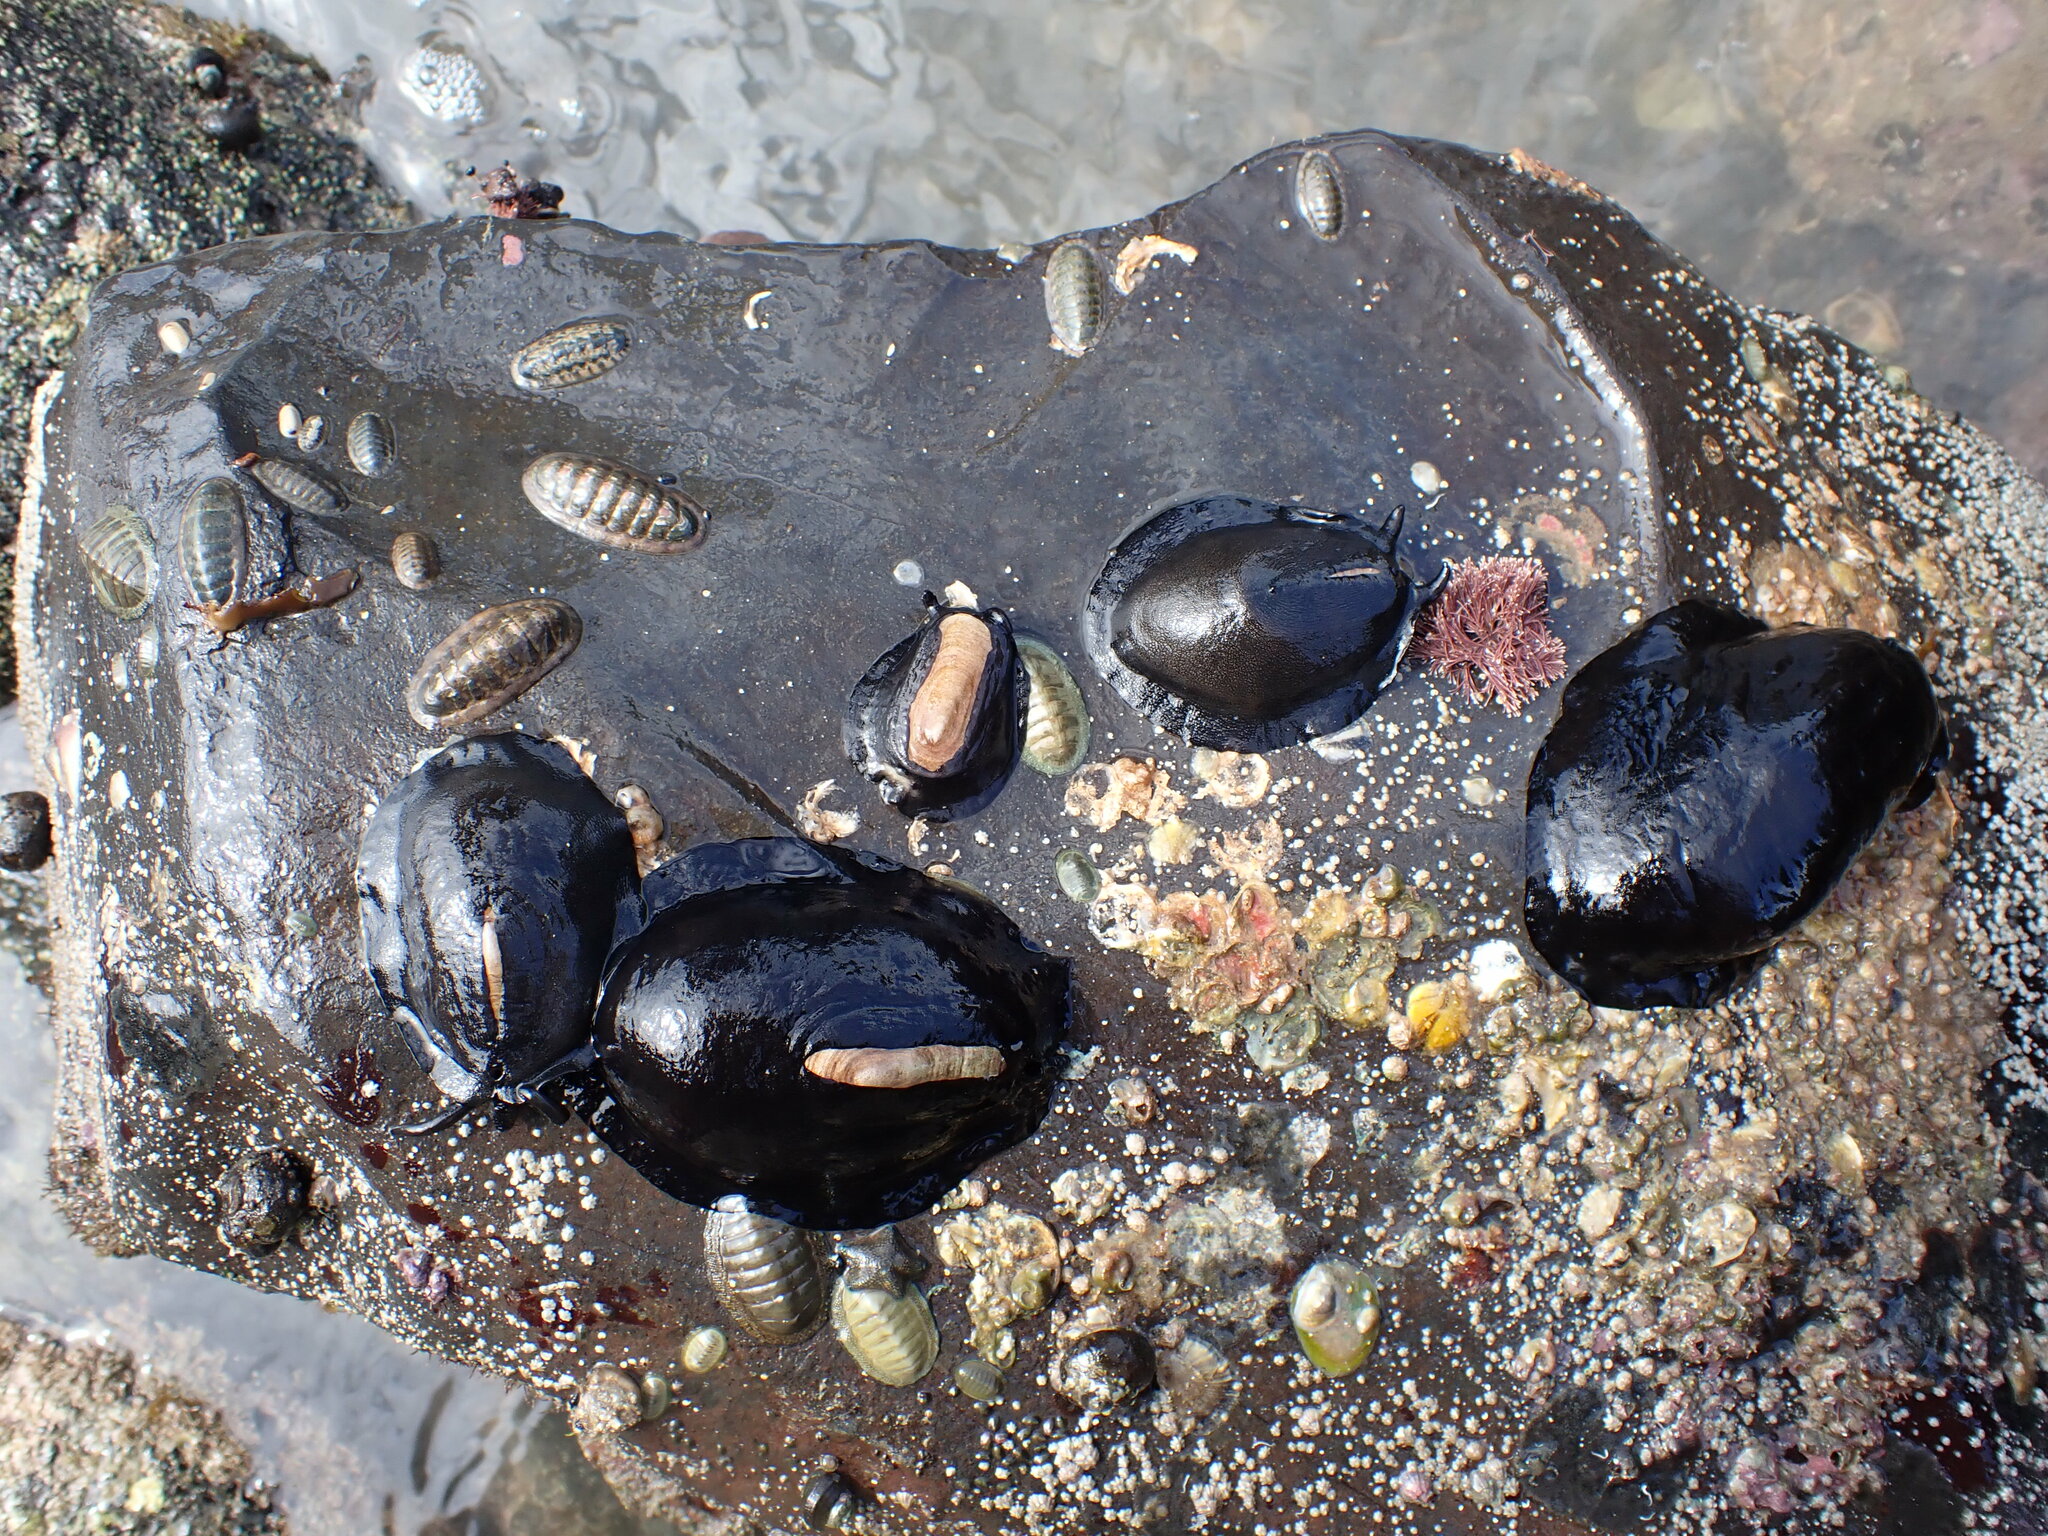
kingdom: Animalia
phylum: Mollusca
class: Gastropoda
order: Lepetellida
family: Fissurellidae
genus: Scutus
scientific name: Scutus breviculus
